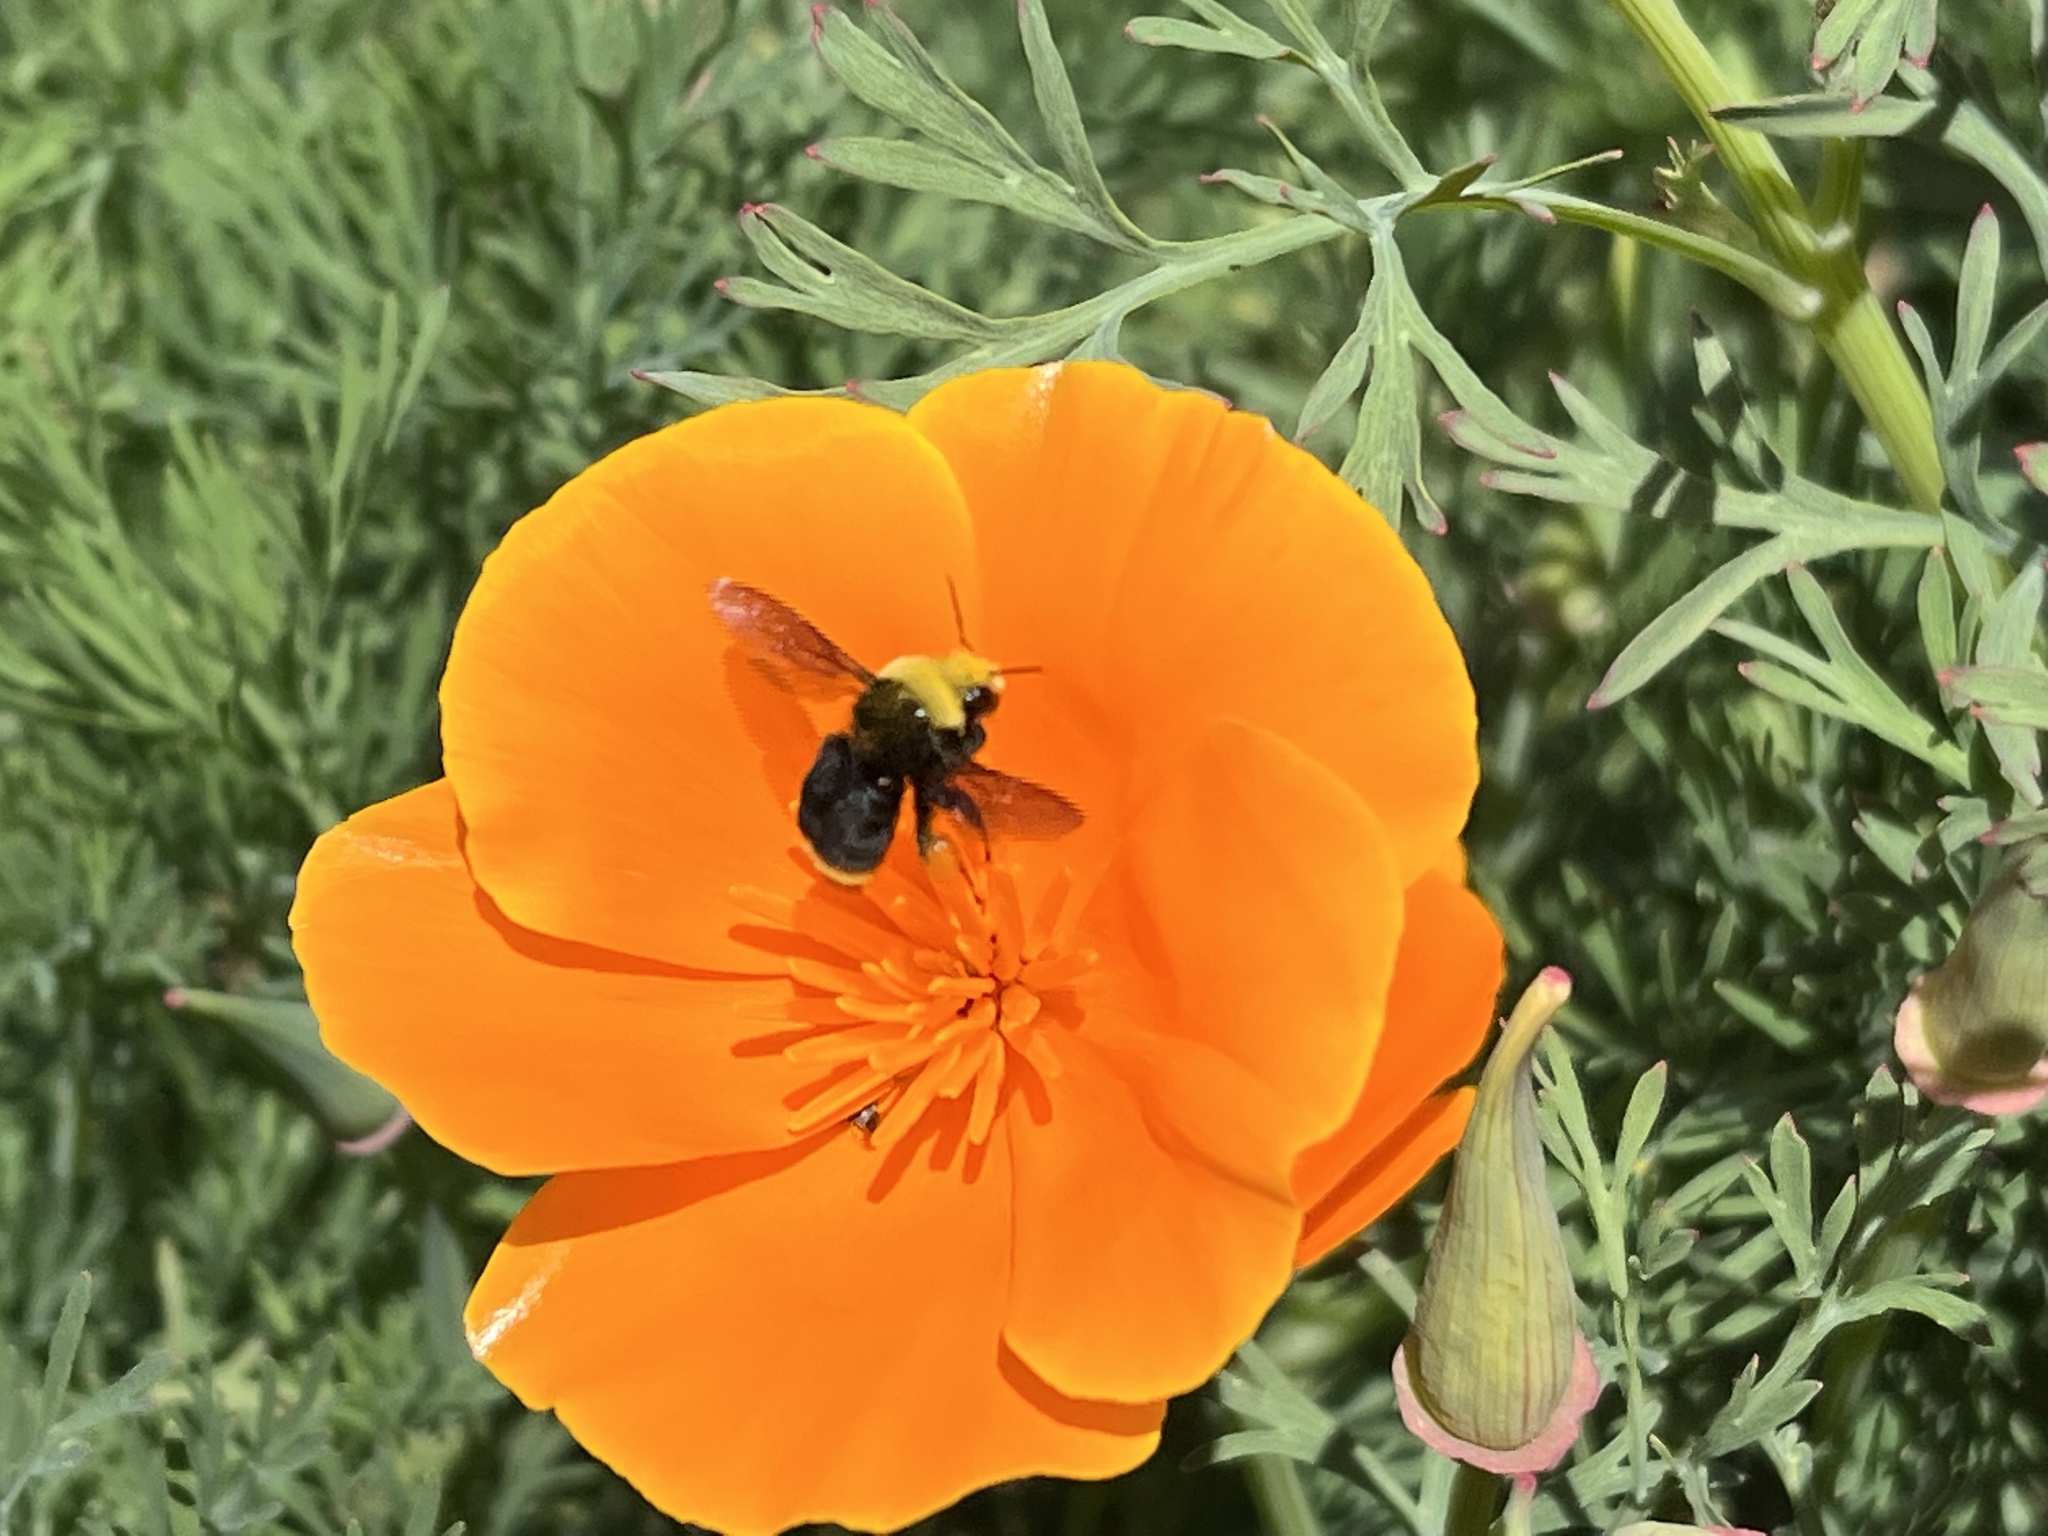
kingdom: Plantae
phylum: Tracheophyta
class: Magnoliopsida
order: Ranunculales
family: Papaveraceae
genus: Eschscholzia
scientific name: Eschscholzia californica
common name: California poppy
